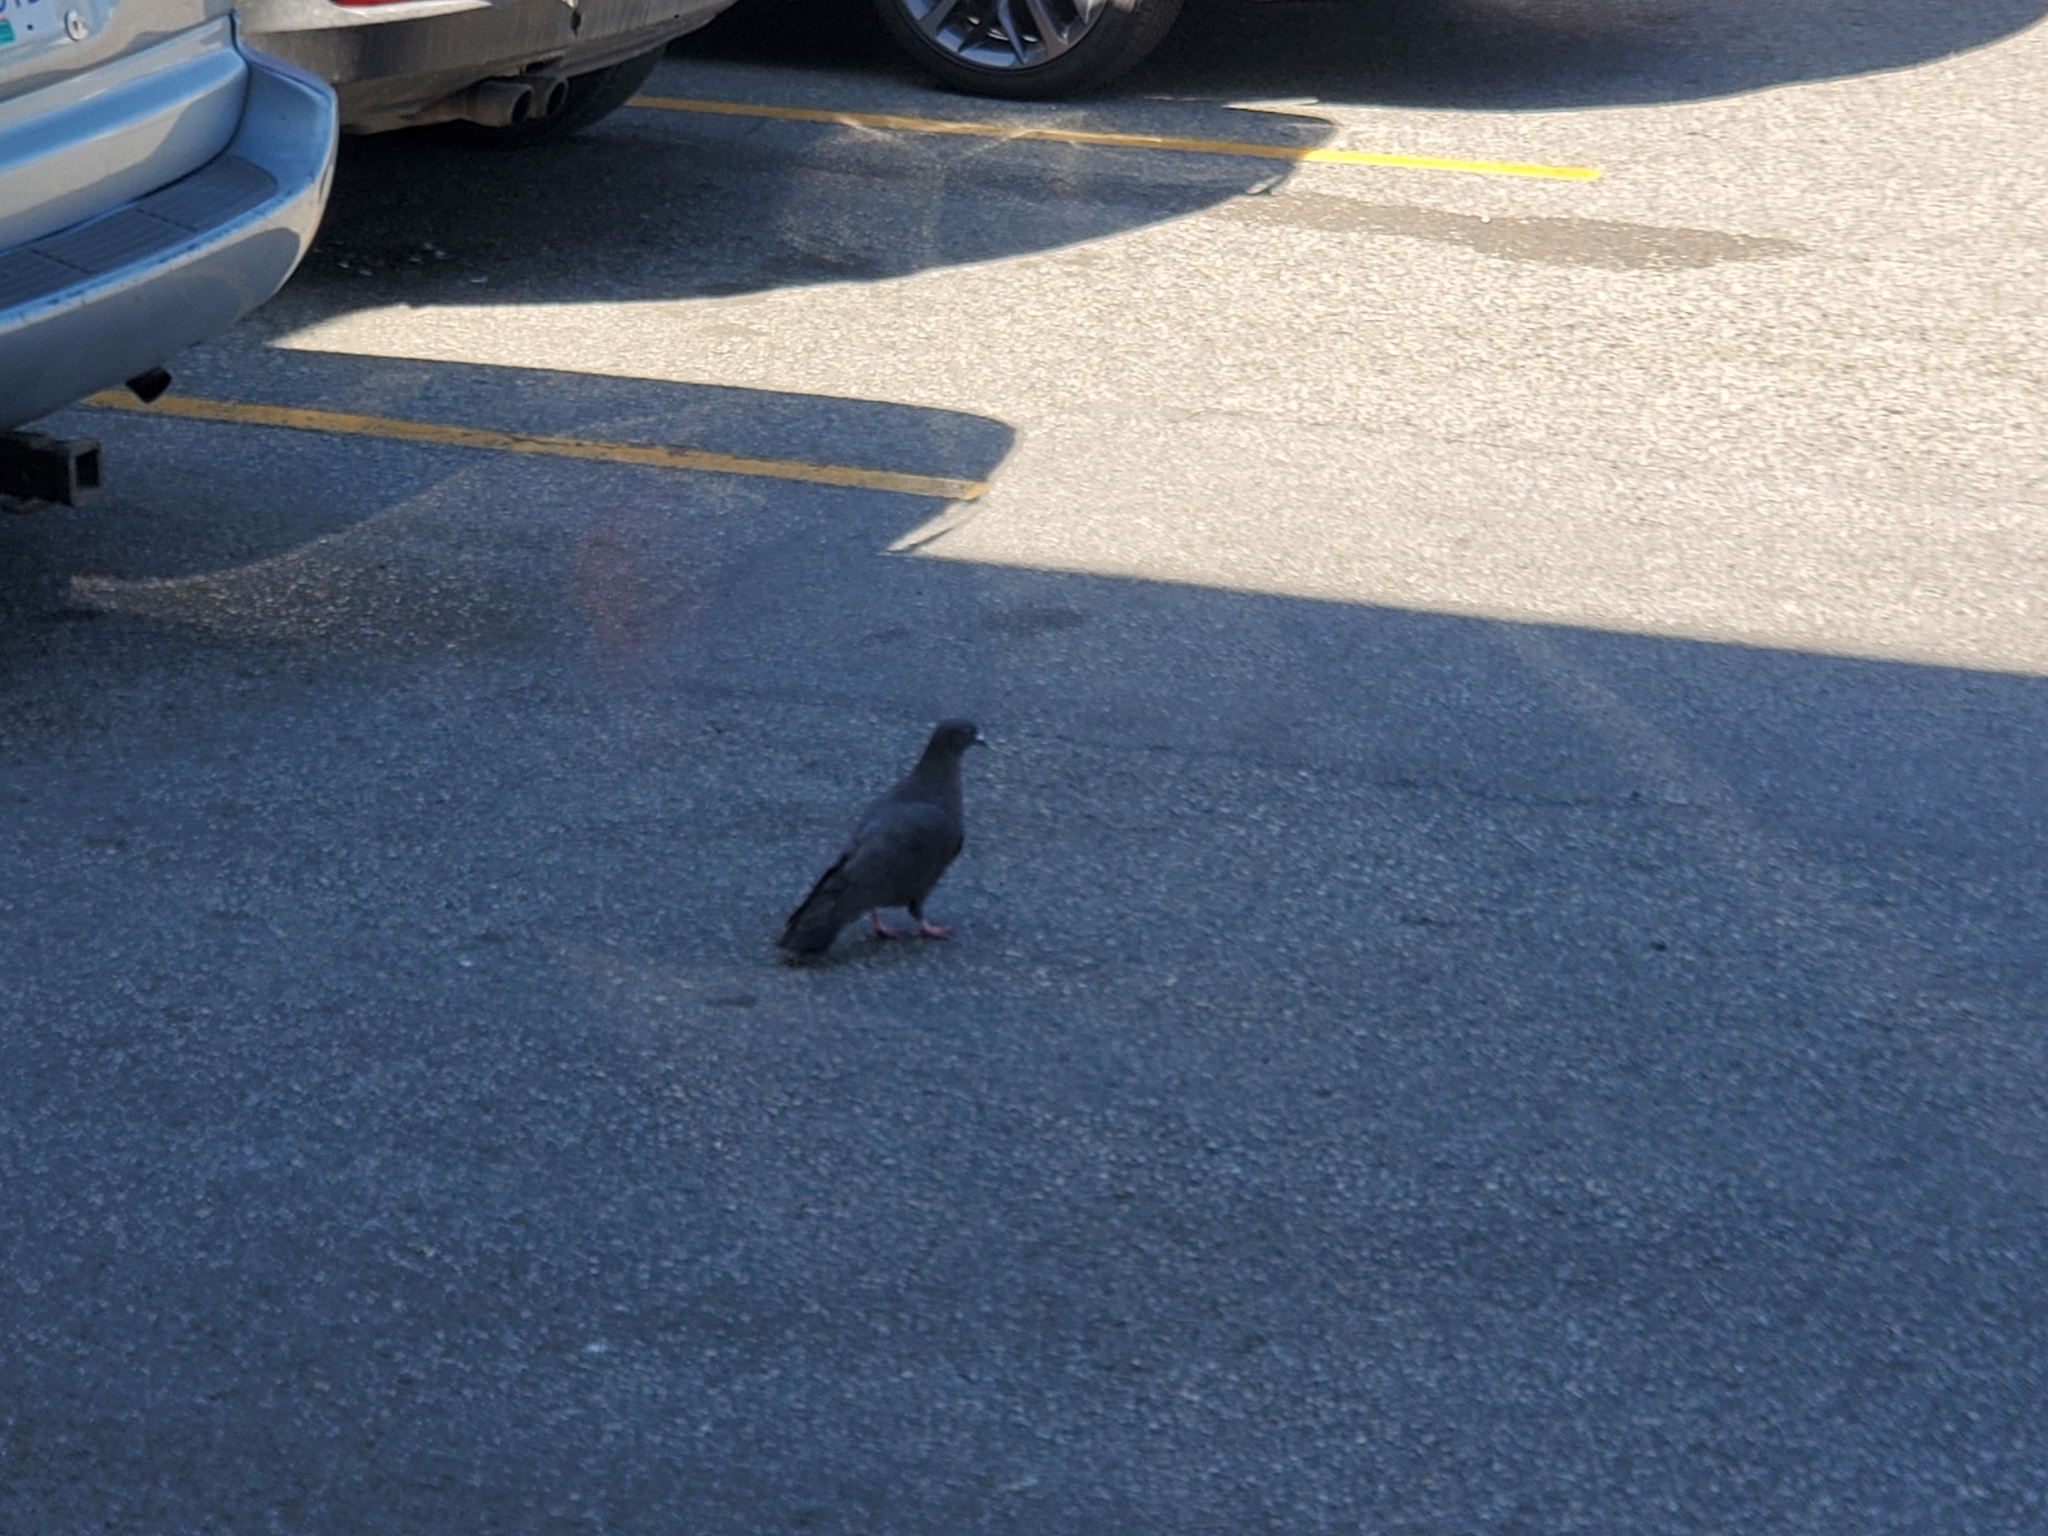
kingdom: Animalia
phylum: Chordata
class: Aves
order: Columbiformes
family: Columbidae
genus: Columba
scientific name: Columba livia
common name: Rock pigeon
